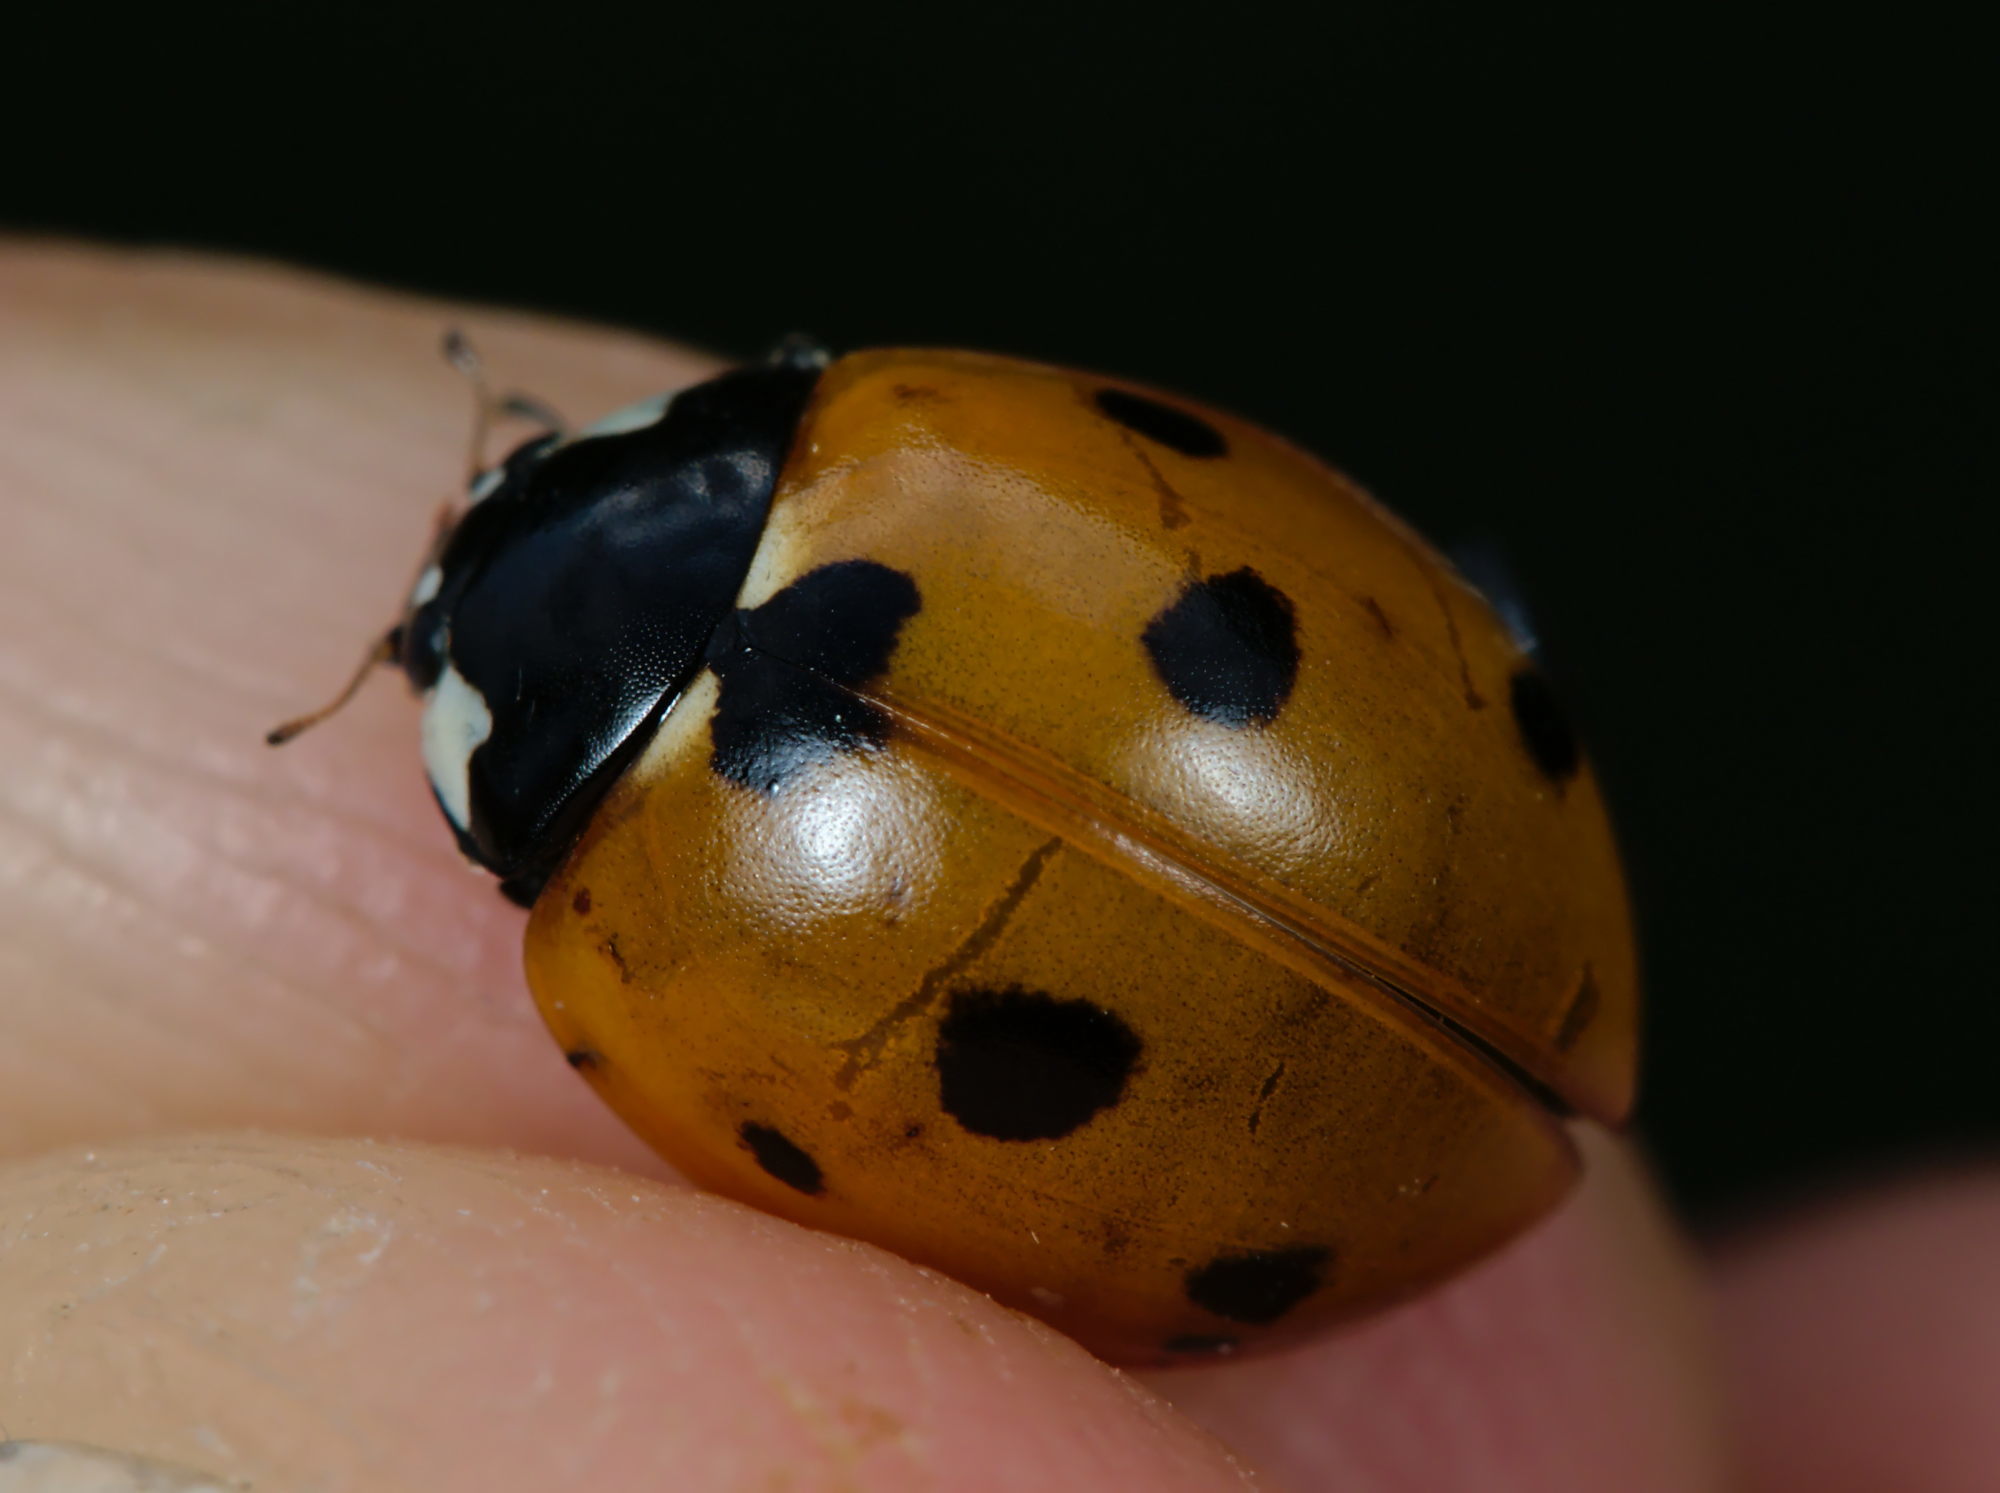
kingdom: Animalia
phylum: Arthropoda
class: Insecta
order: Coleoptera
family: Coccinellidae
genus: Coccinella
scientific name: Coccinella septempunctata
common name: Sevenspotted lady beetle
